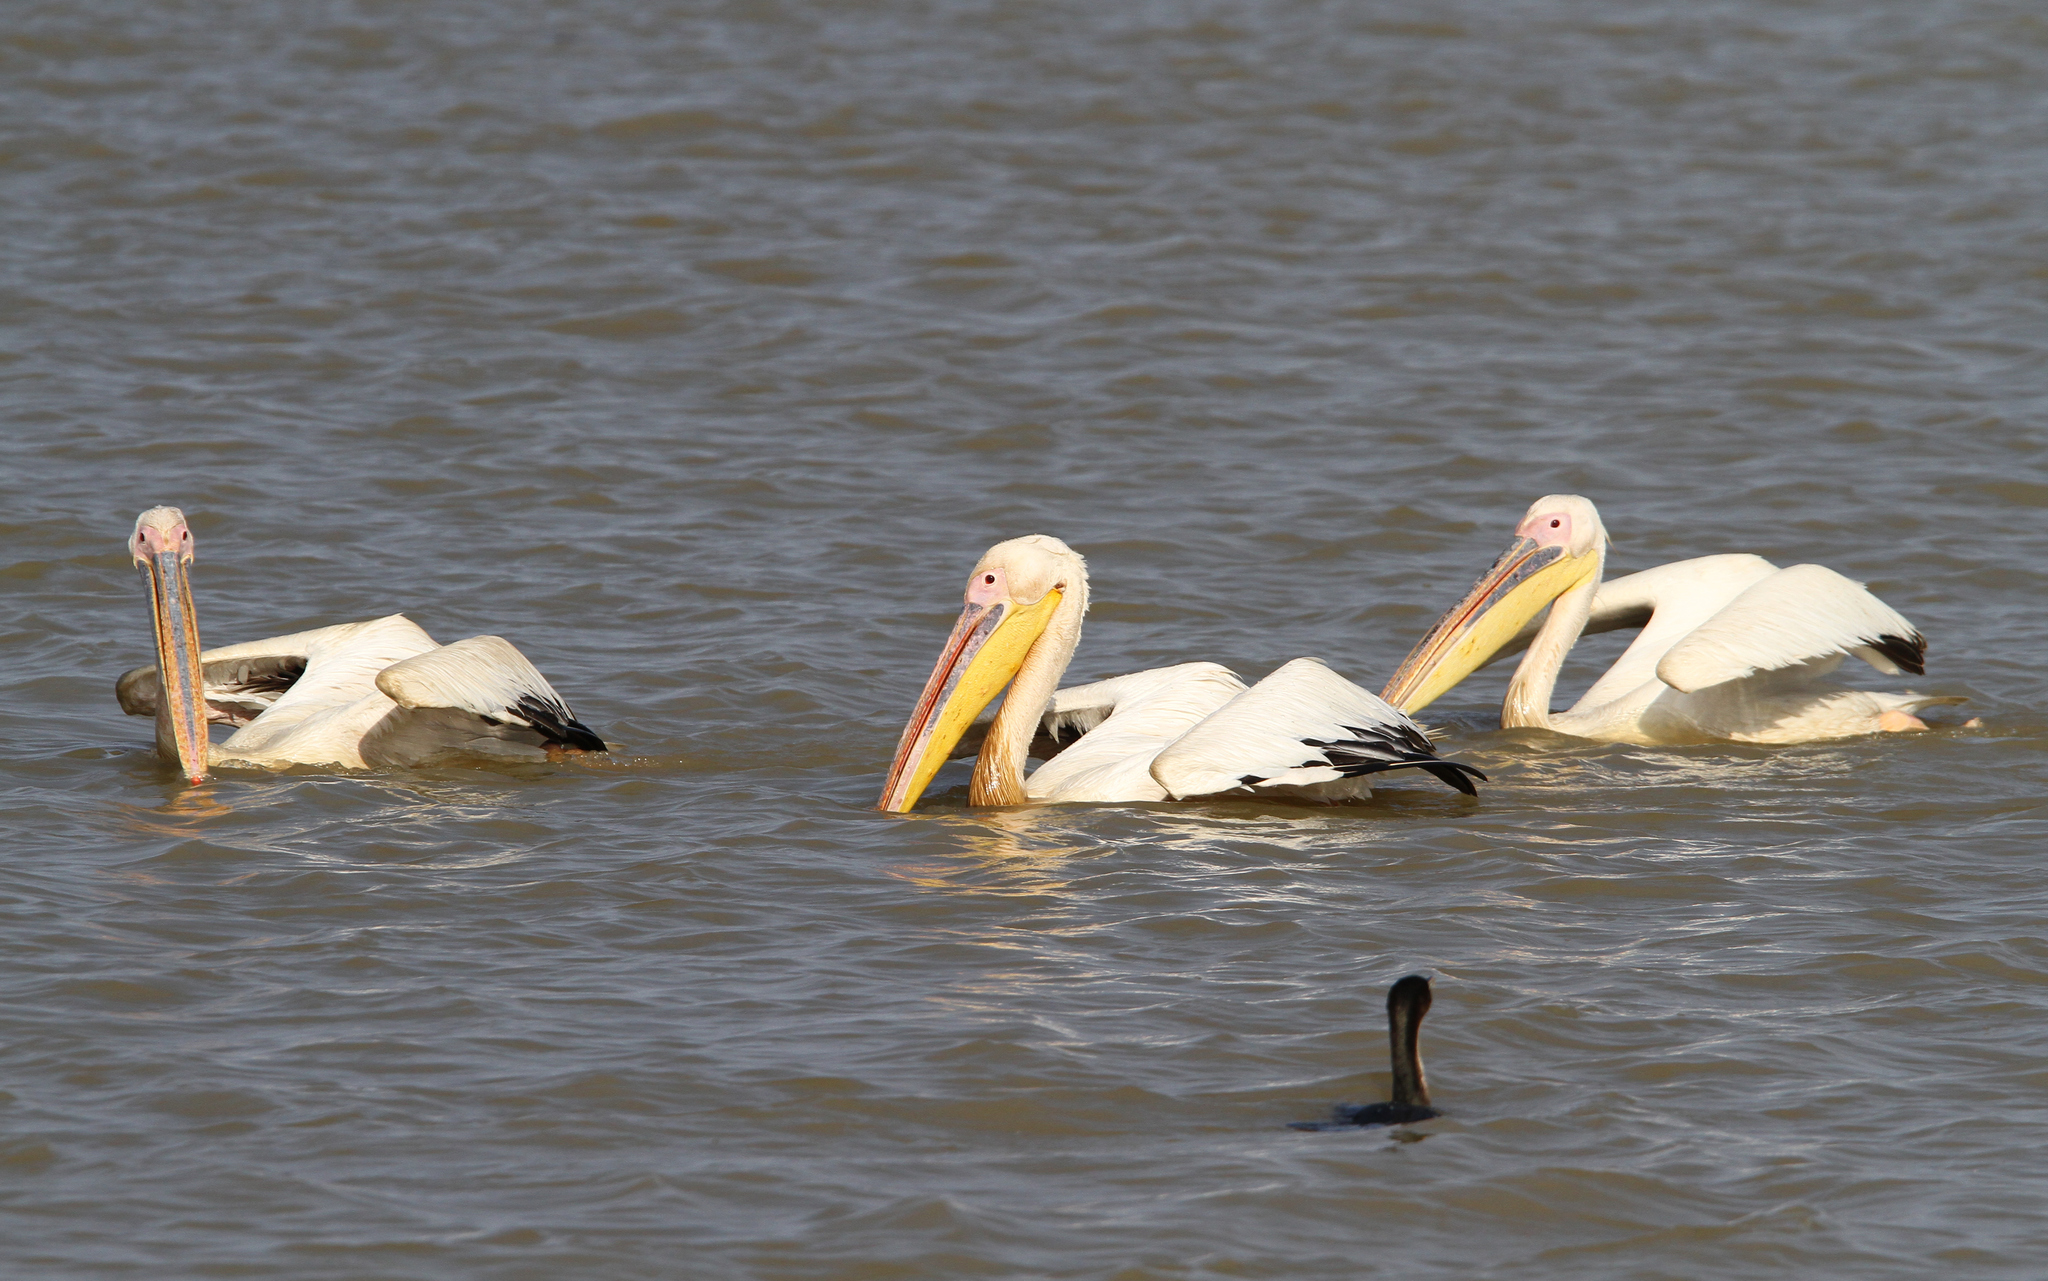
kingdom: Animalia
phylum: Chordata
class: Aves
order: Pelecaniformes
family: Pelecanidae
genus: Pelecanus
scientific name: Pelecanus onocrotalus
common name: Great white pelican
